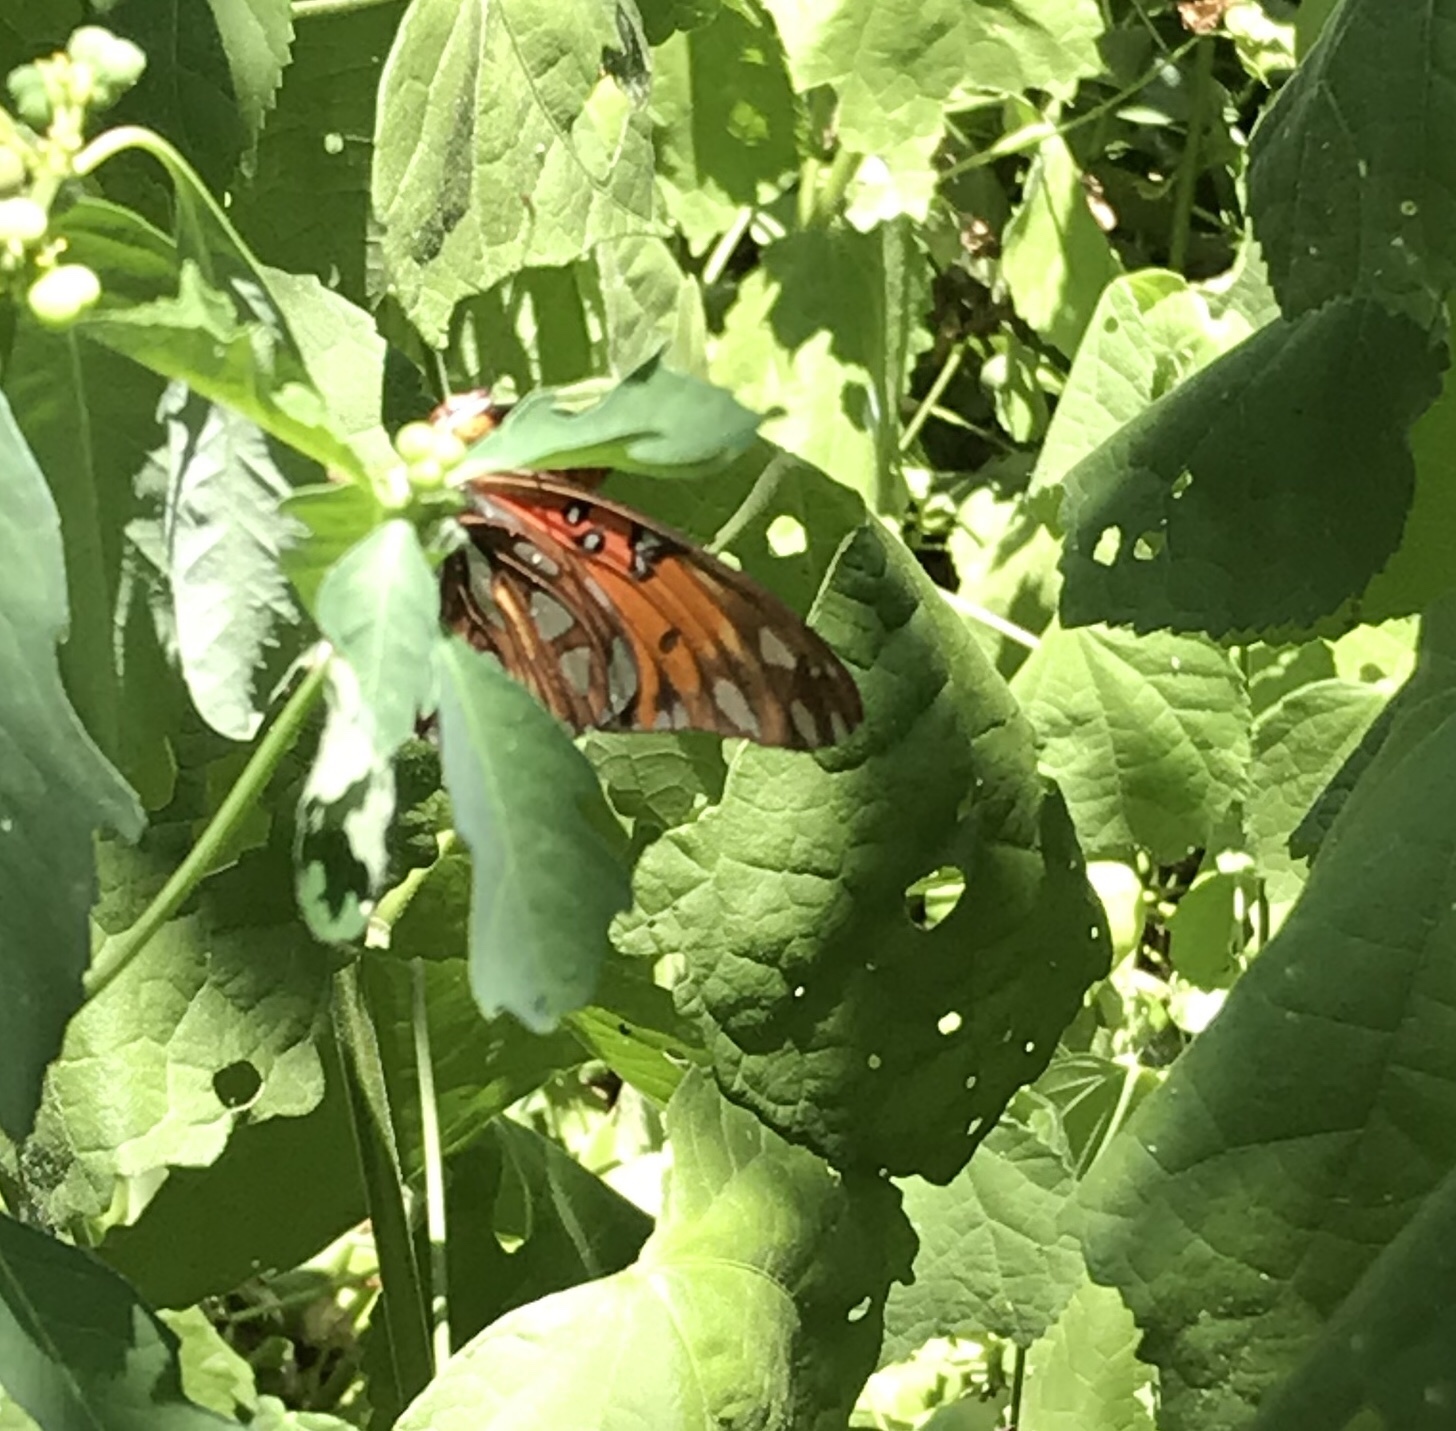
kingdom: Animalia
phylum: Arthropoda
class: Insecta
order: Lepidoptera
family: Nymphalidae
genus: Dione
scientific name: Dione vanillae
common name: Gulf fritillary
